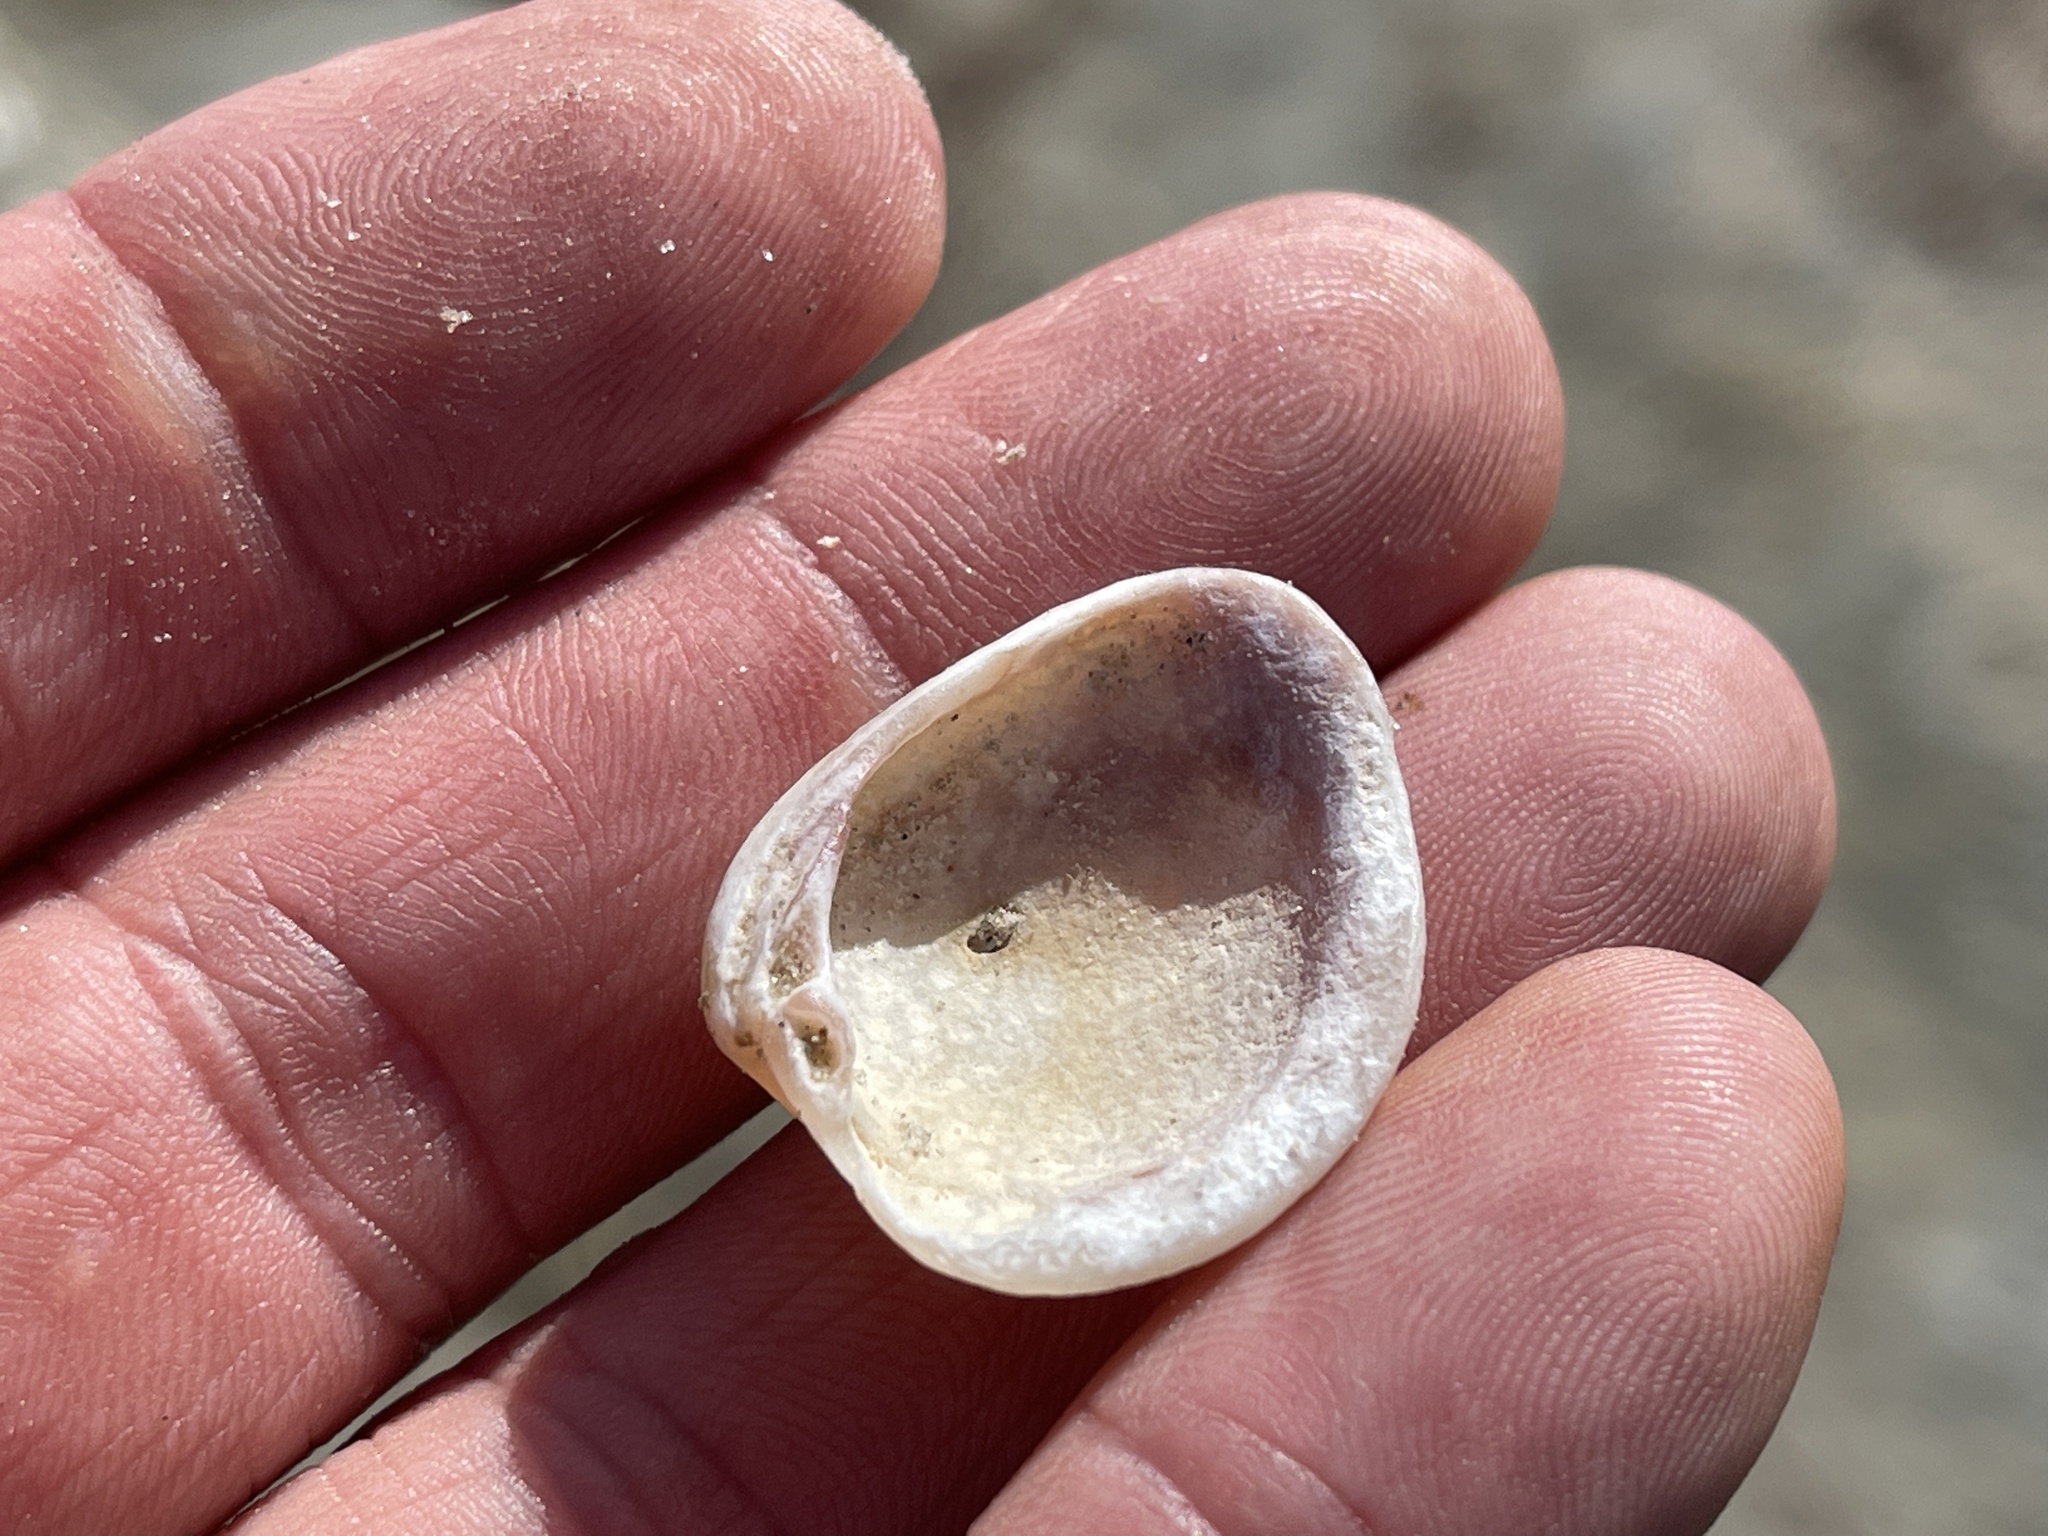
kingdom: Animalia
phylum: Mollusca
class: Bivalvia
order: Venerida
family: Veneridae
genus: Chione
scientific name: Chione elevata
